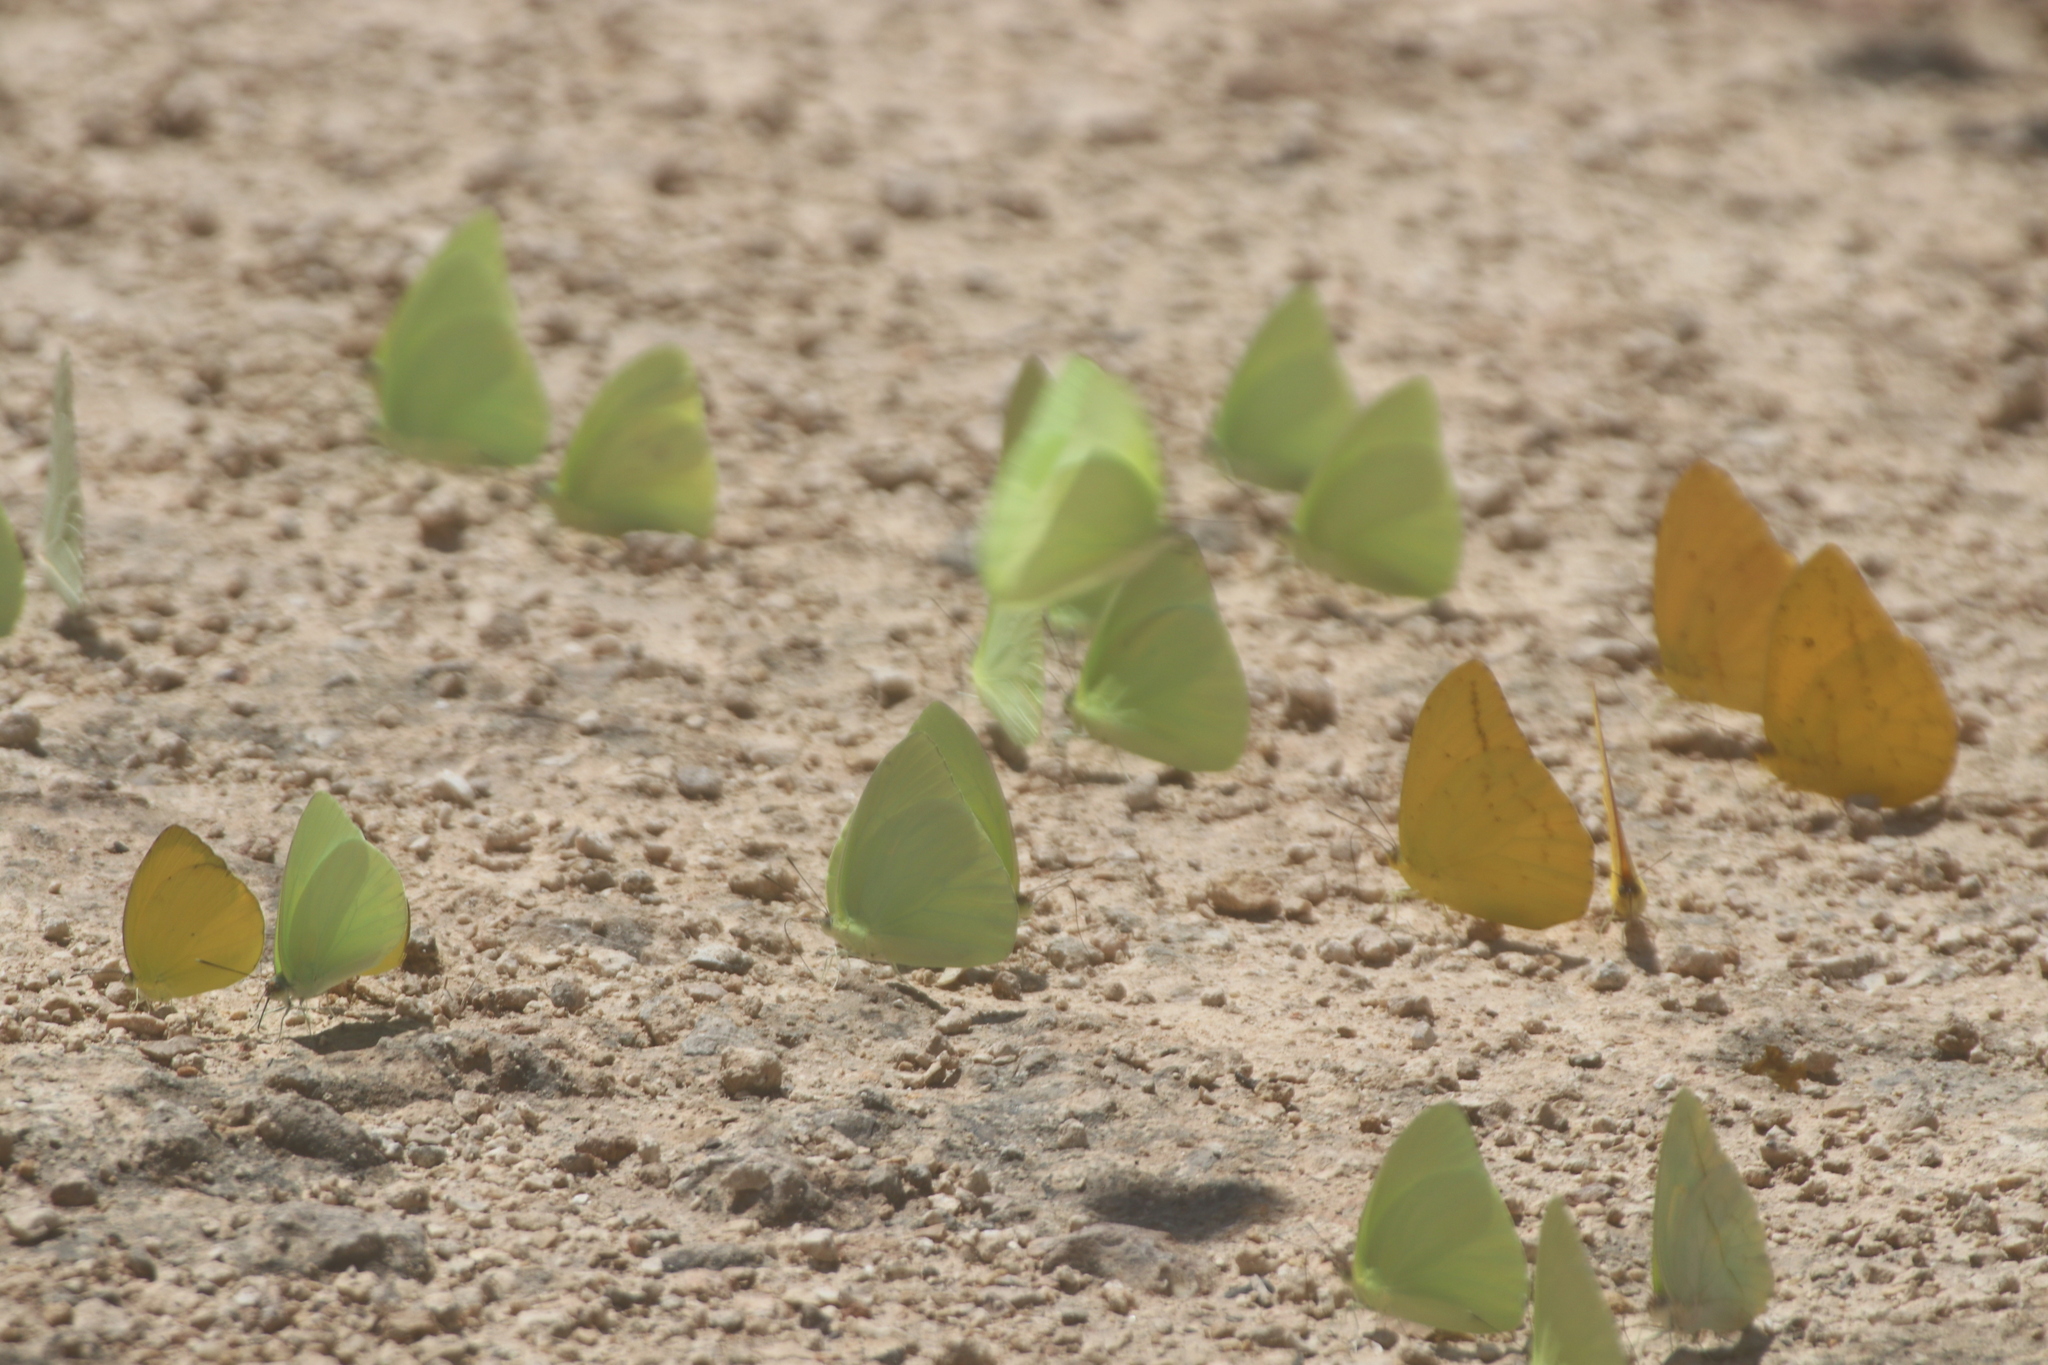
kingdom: Animalia
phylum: Arthropoda
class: Insecta
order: Lepidoptera
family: Pieridae
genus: Aphrissa
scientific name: Aphrissa statira
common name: Statira sulphur
